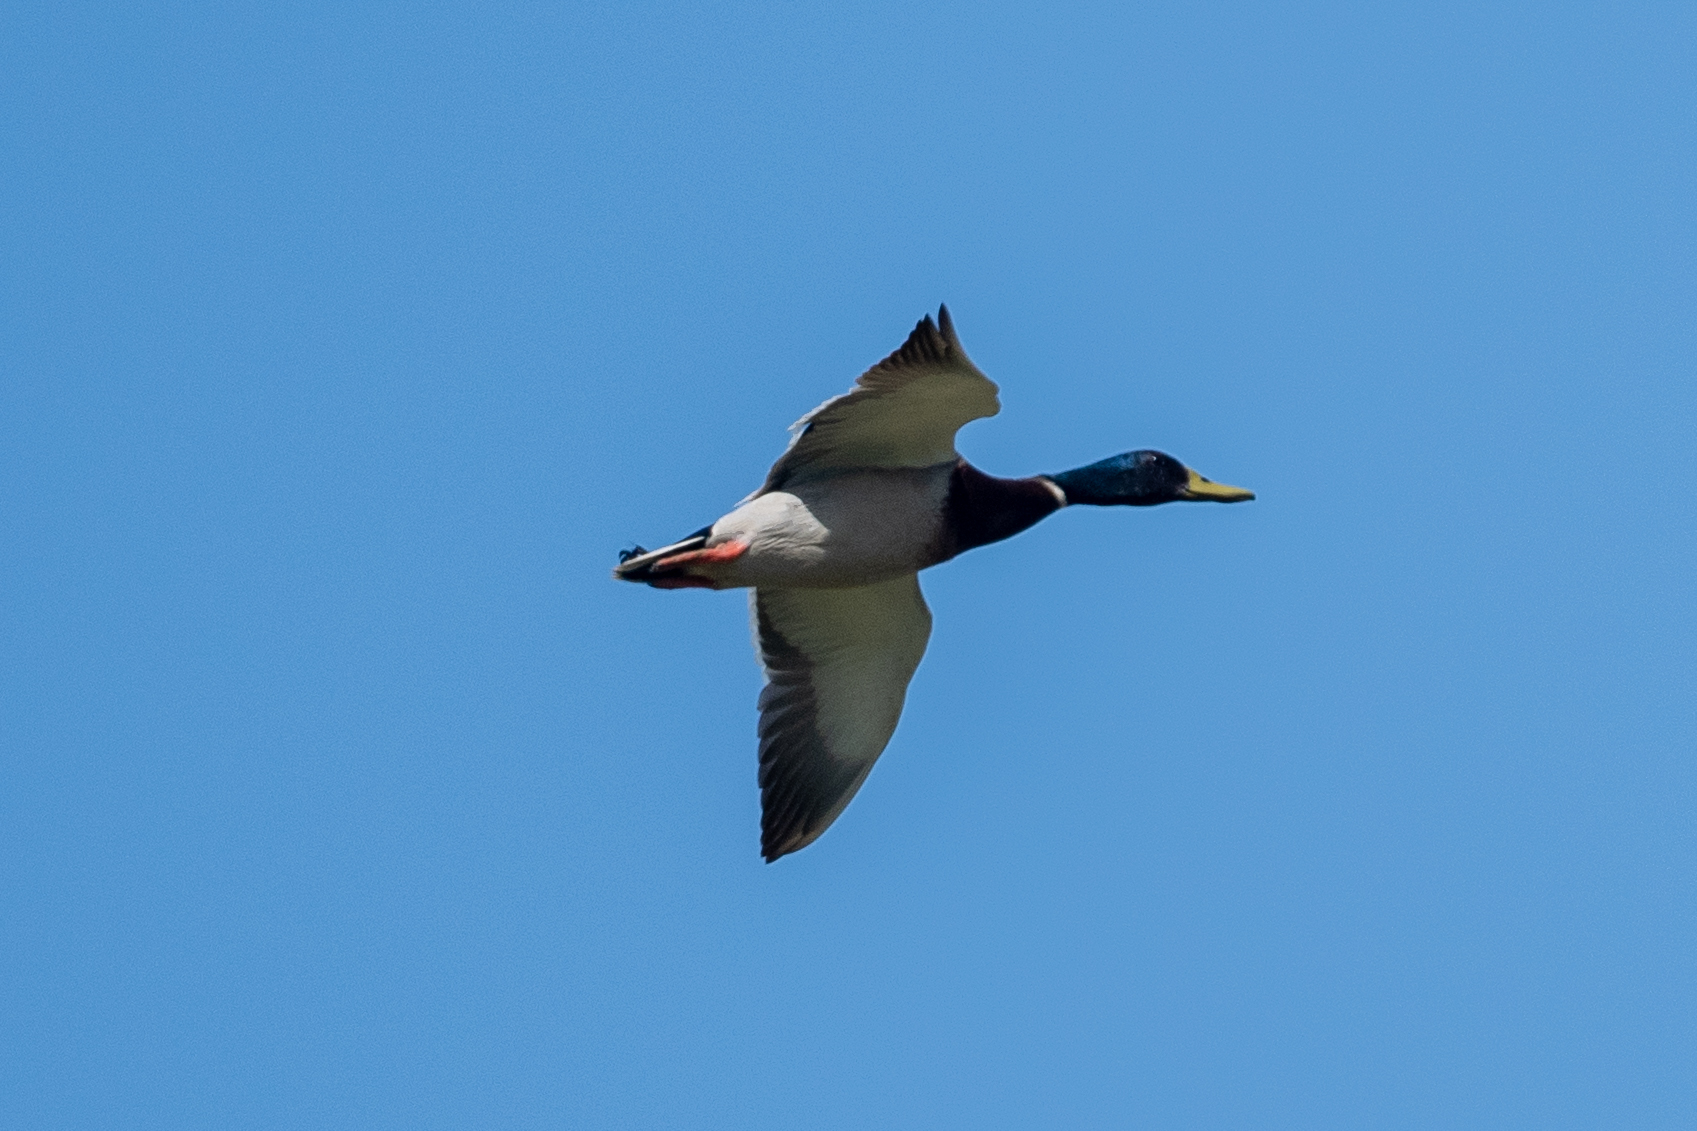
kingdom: Animalia
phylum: Chordata
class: Aves
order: Anseriformes
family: Anatidae
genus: Anas
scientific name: Anas platyrhynchos
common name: Mallard
